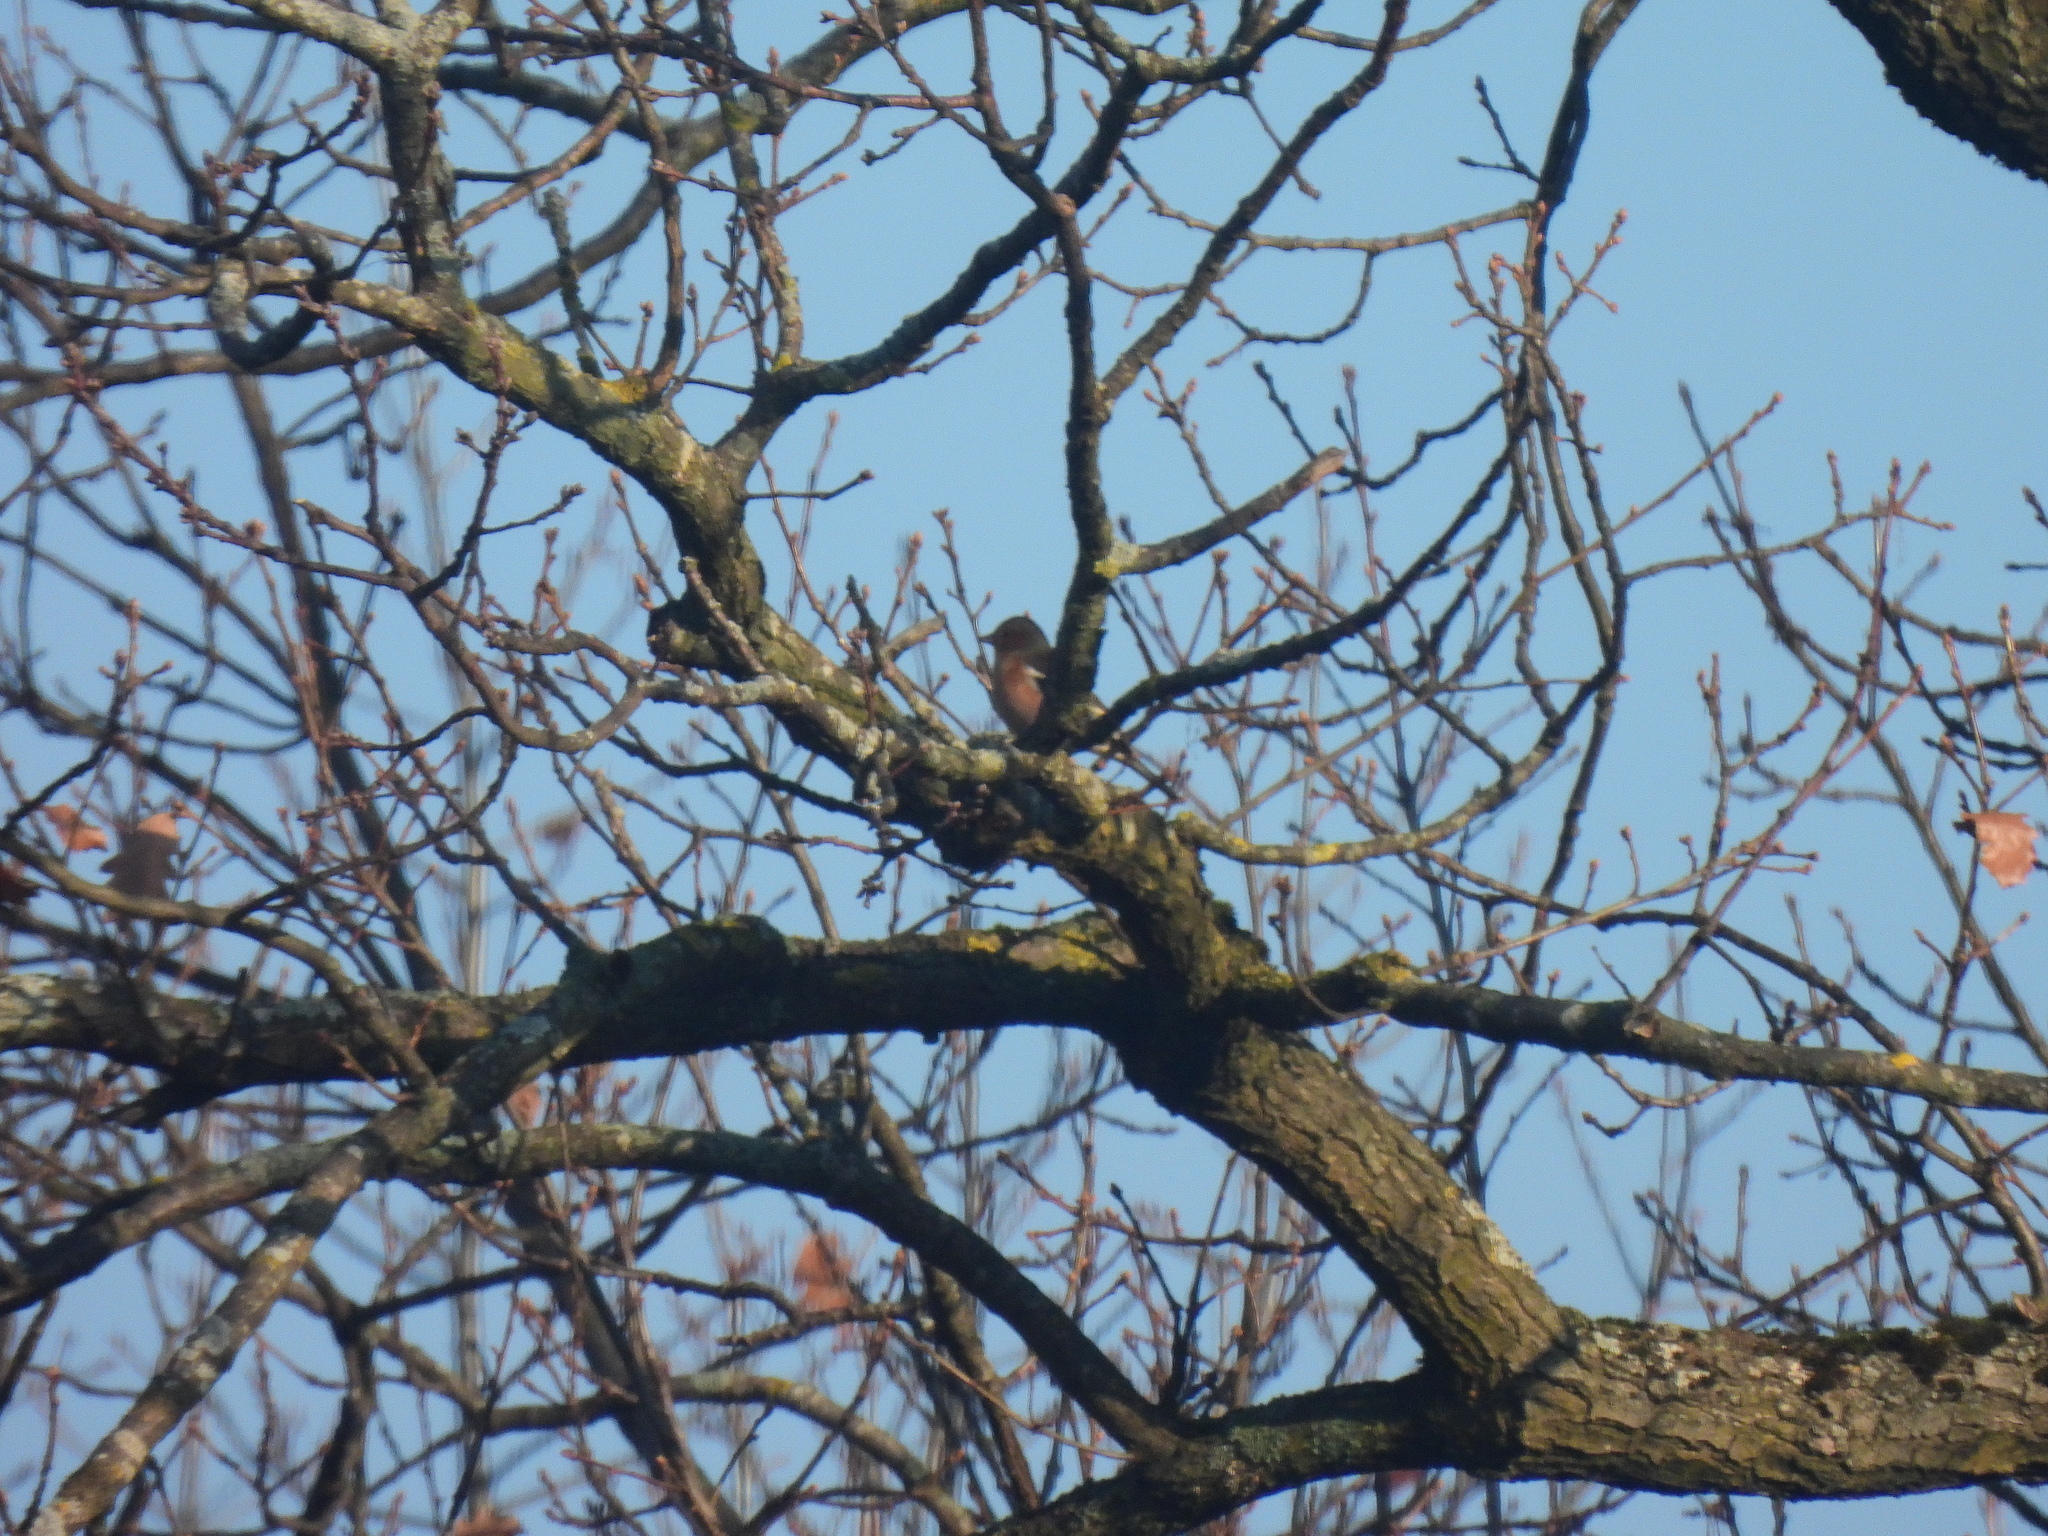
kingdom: Animalia
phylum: Chordata
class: Aves
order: Passeriformes
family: Fringillidae
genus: Fringilla
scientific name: Fringilla coelebs
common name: Common chaffinch
